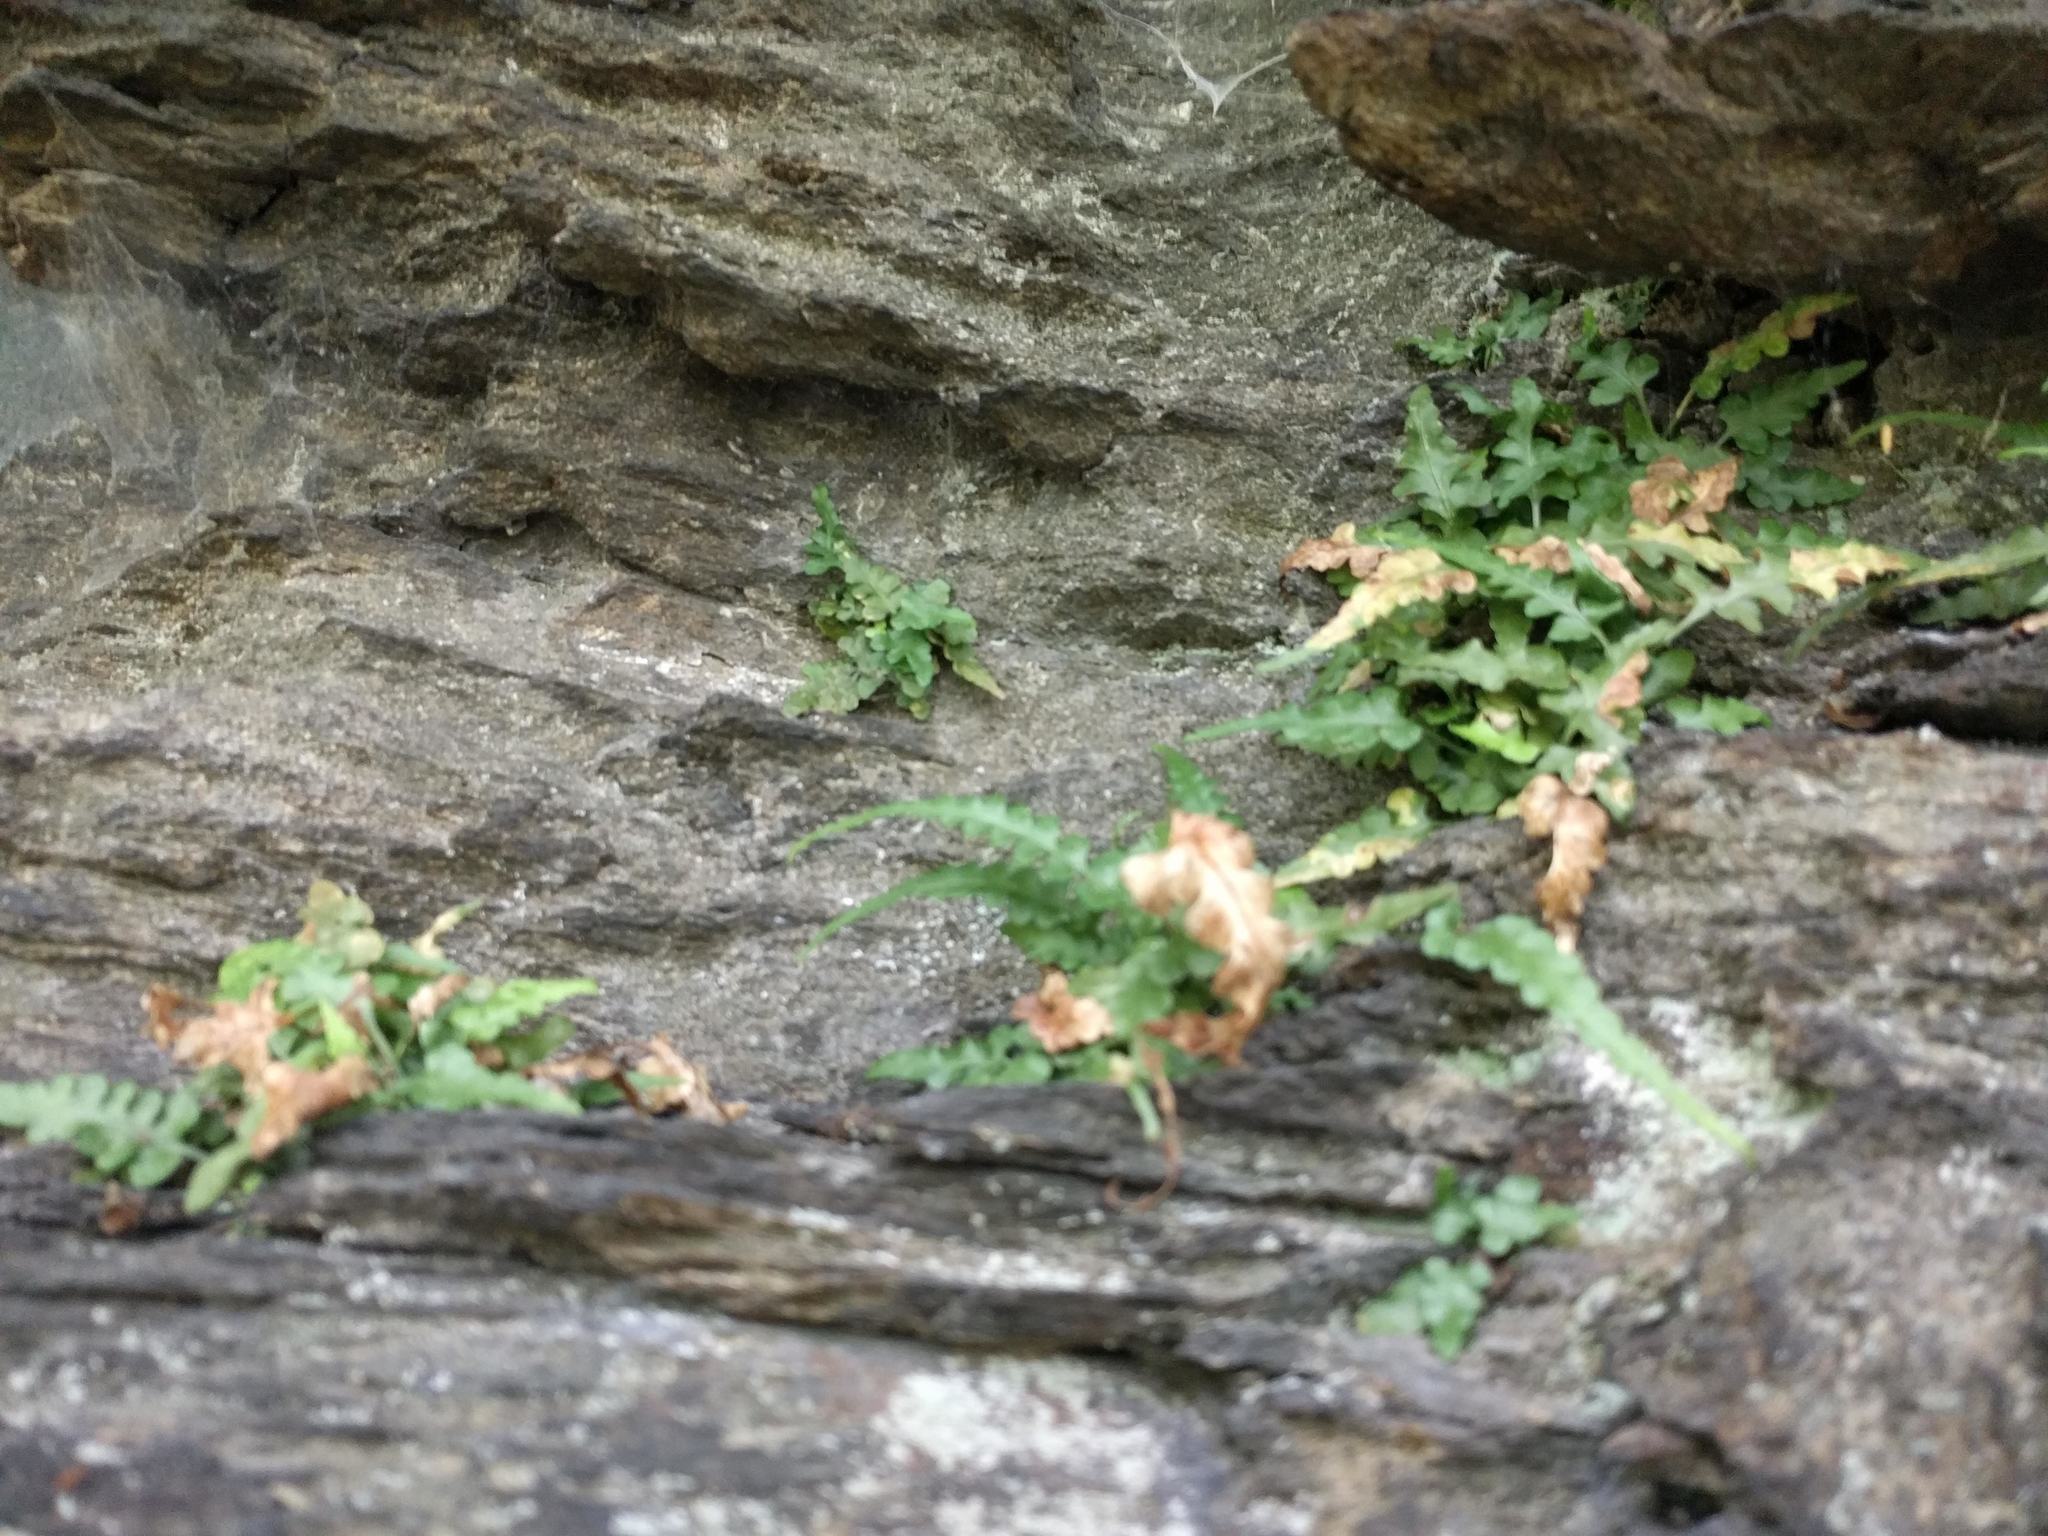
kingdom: Plantae
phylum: Tracheophyta
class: Polypodiopsida
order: Polypodiales
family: Aspleniaceae
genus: Asplenium
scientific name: Asplenium pinnatifidum
